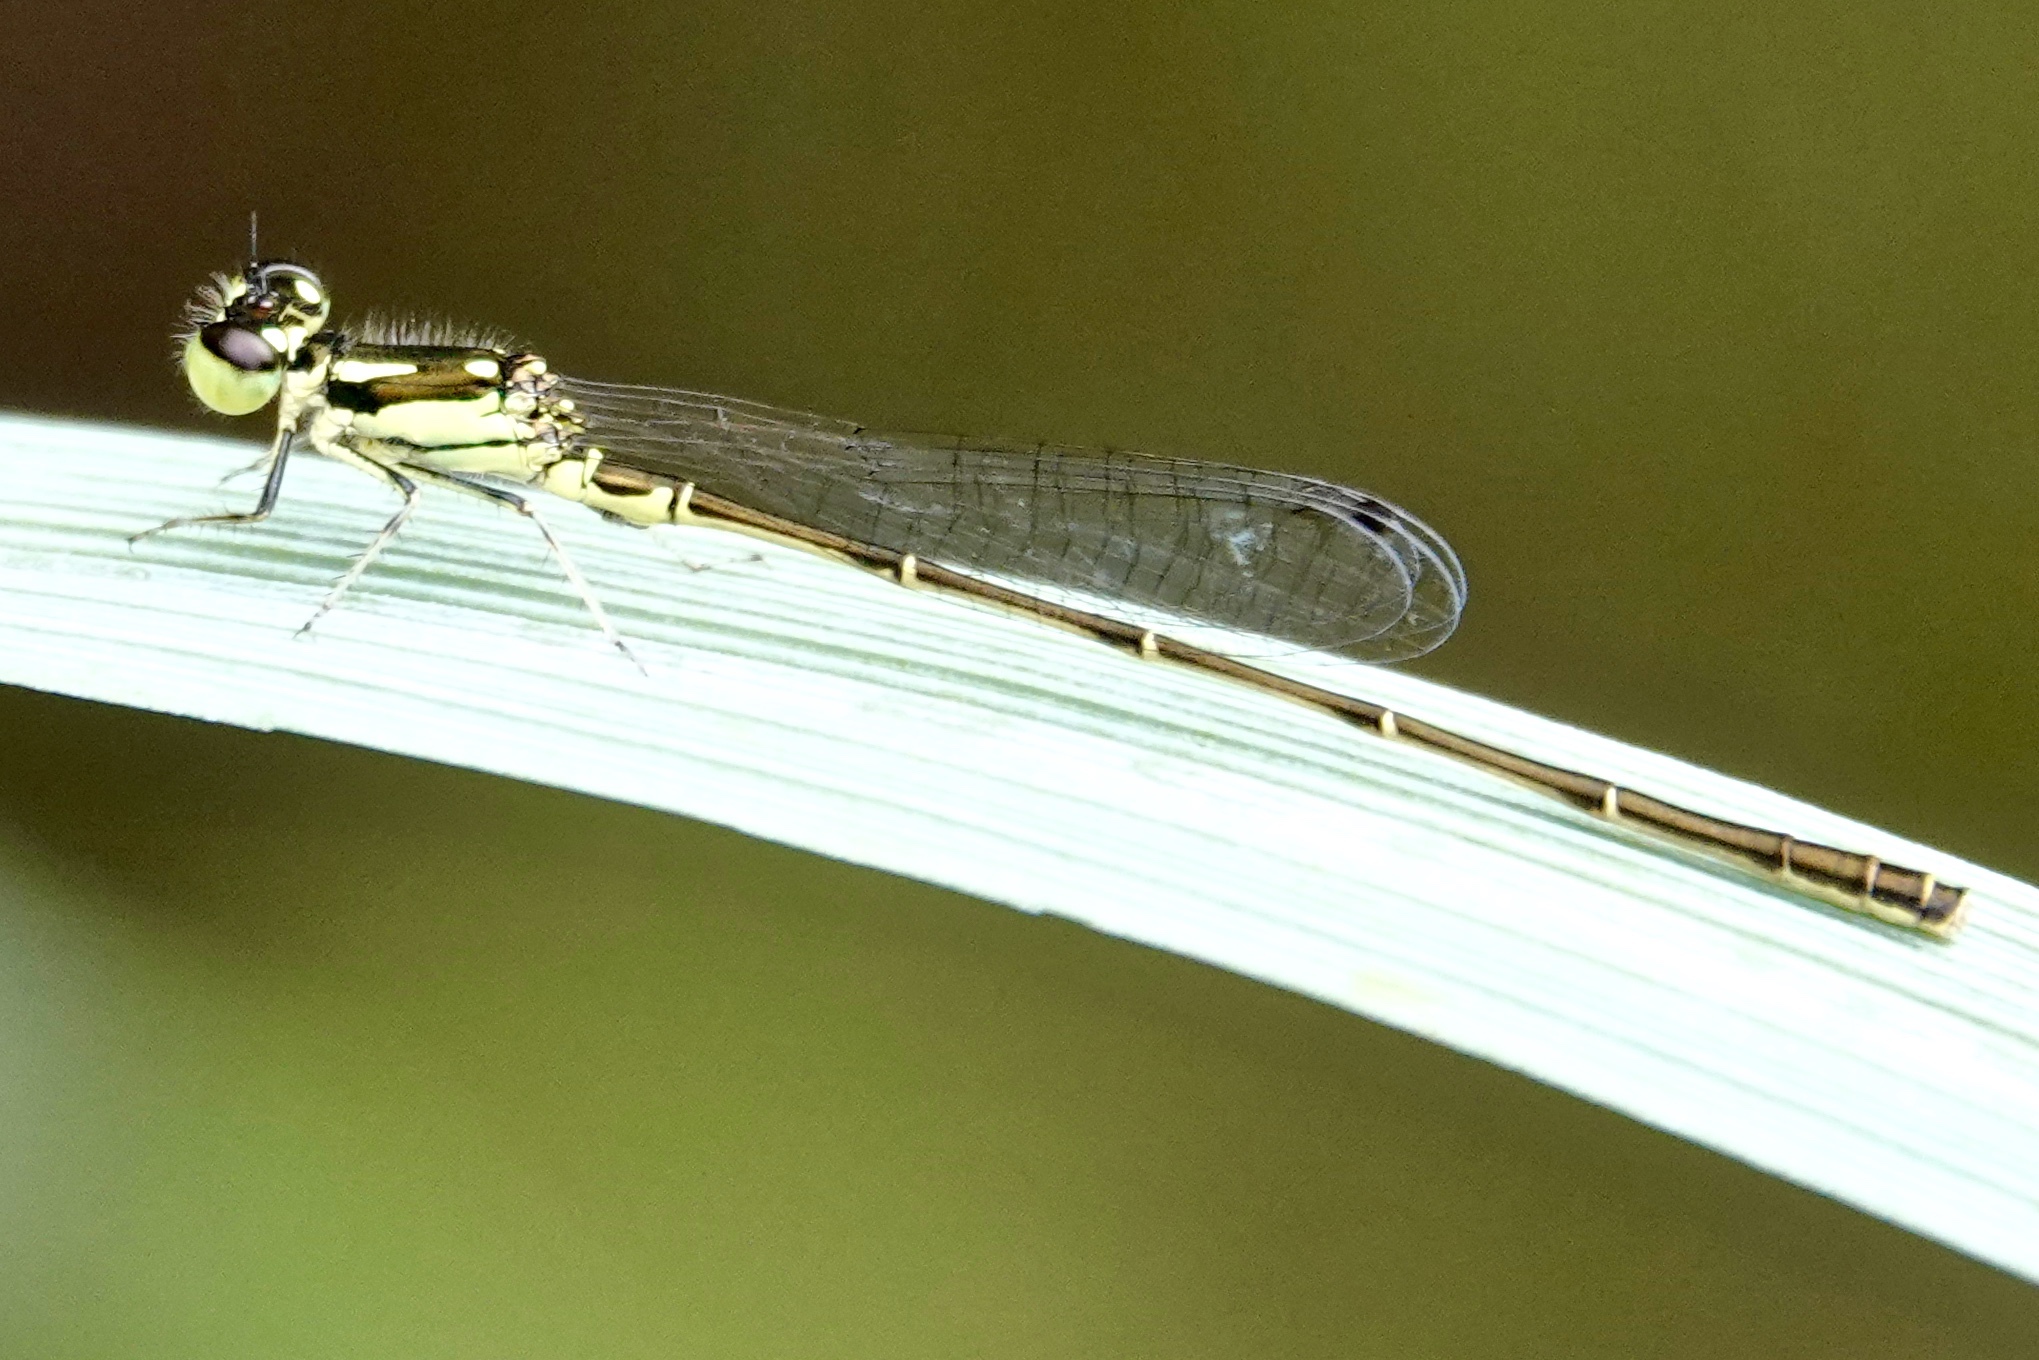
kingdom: Animalia
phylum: Arthropoda
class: Insecta
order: Odonata
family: Coenagrionidae
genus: Ischnura
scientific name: Ischnura posita
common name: Fragile forktail
